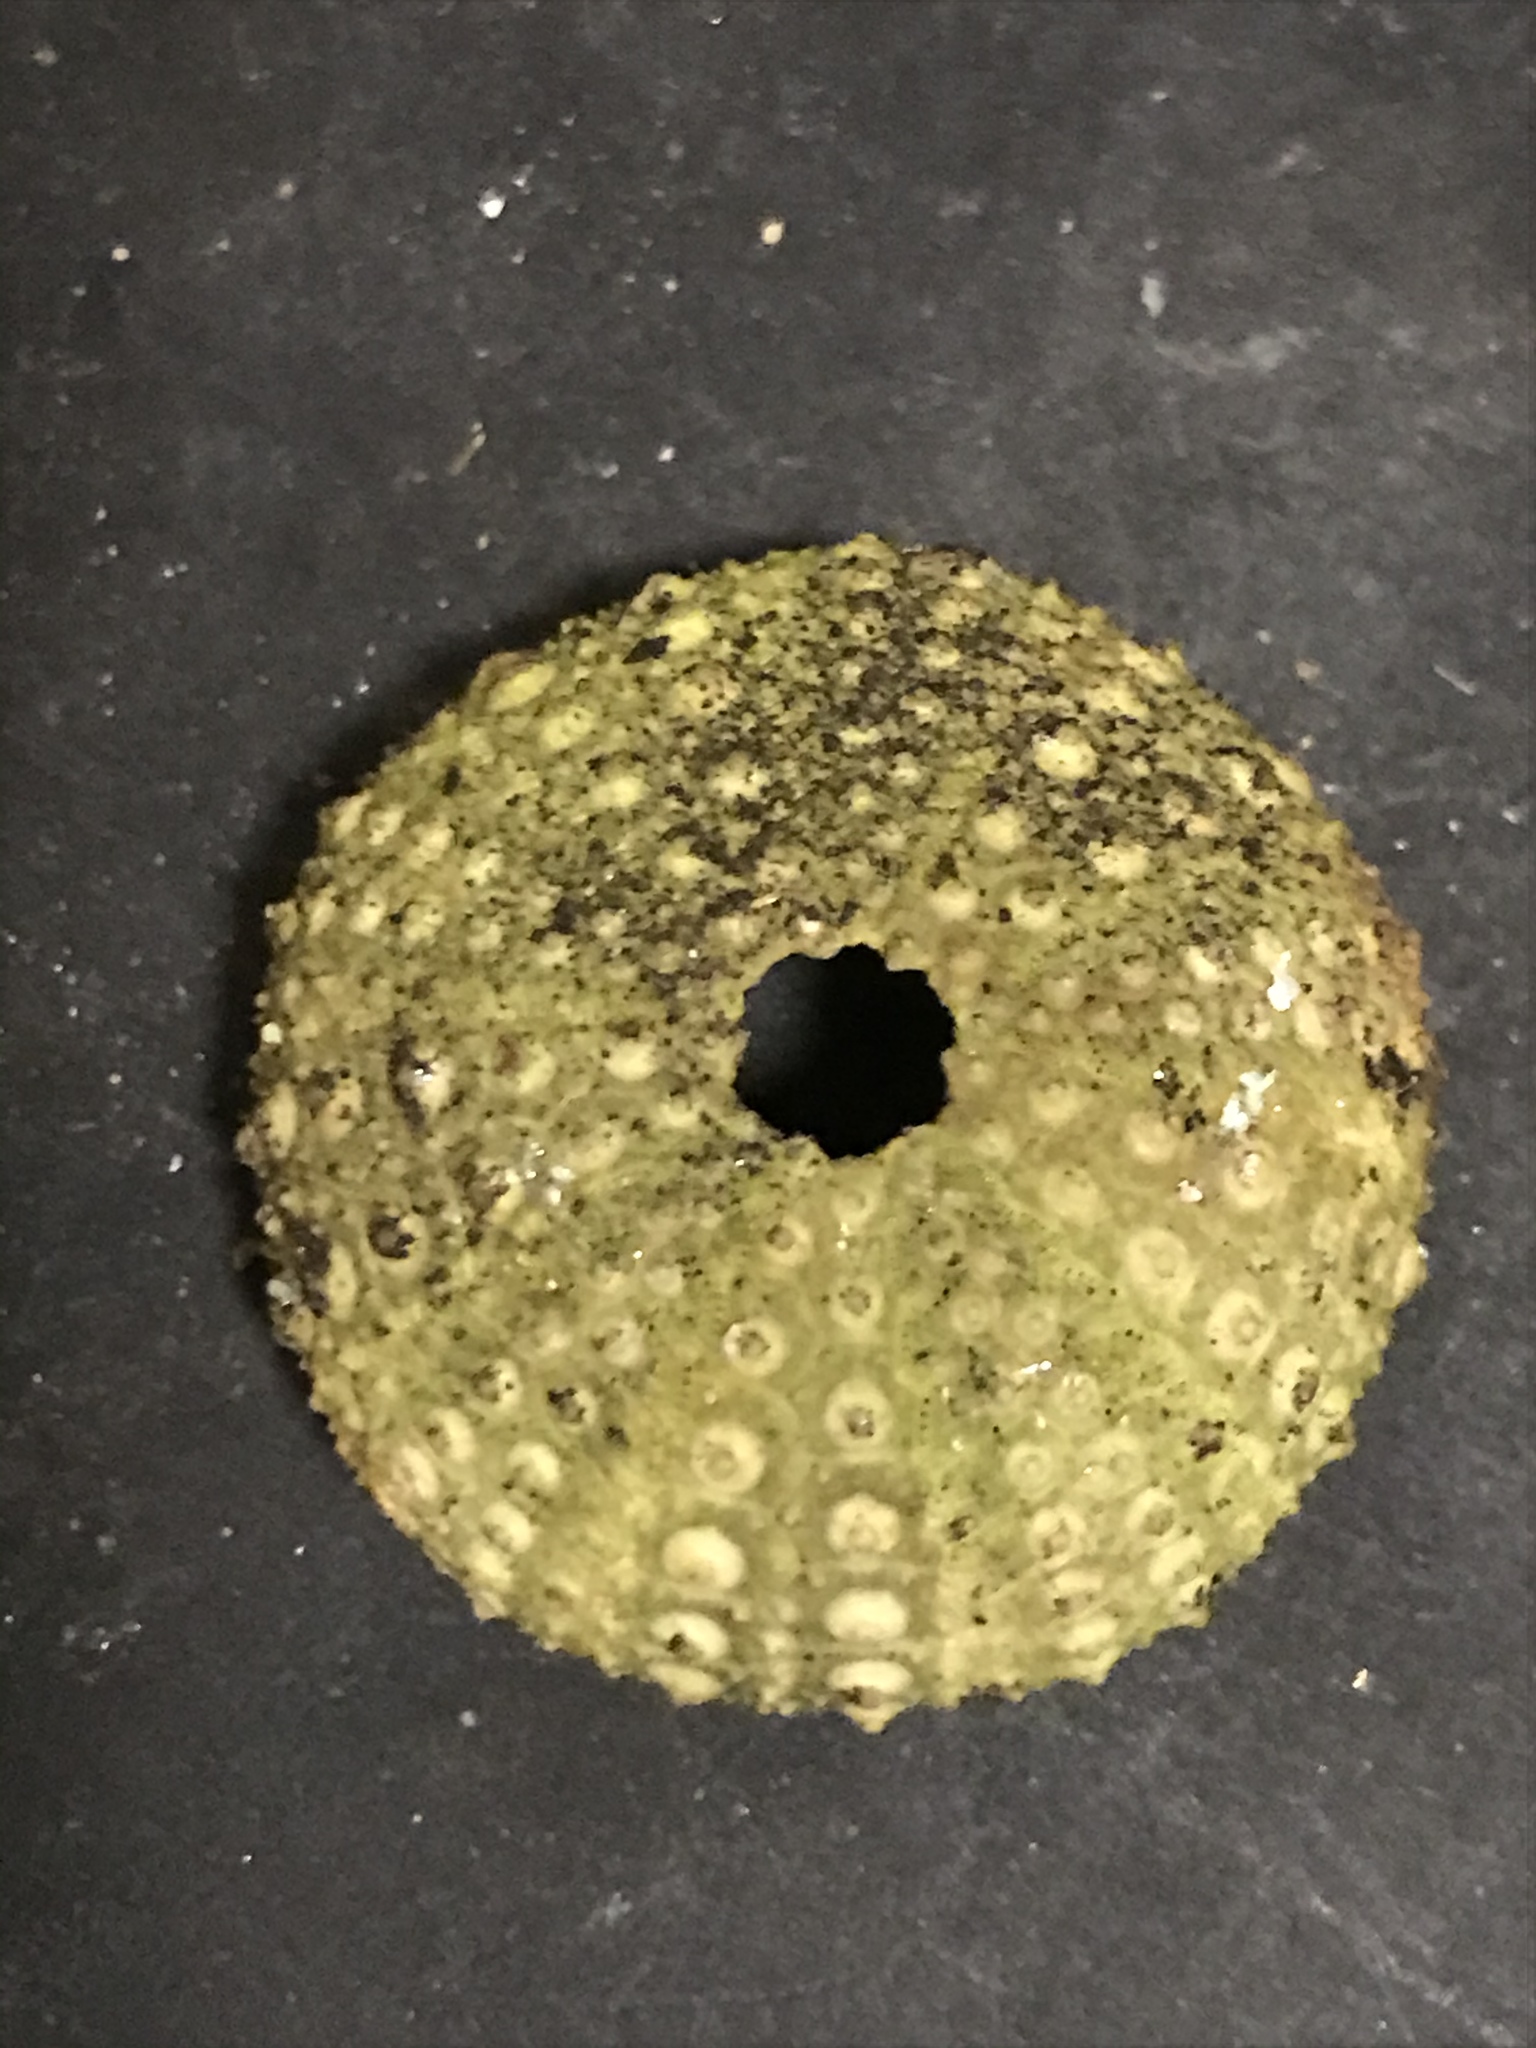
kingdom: Animalia
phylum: Echinodermata
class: Echinoidea
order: Camarodonta
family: Strongylocentrotidae
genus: Strongylocentrotus
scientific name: Strongylocentrotus purpuratus
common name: Purple sea urchin
